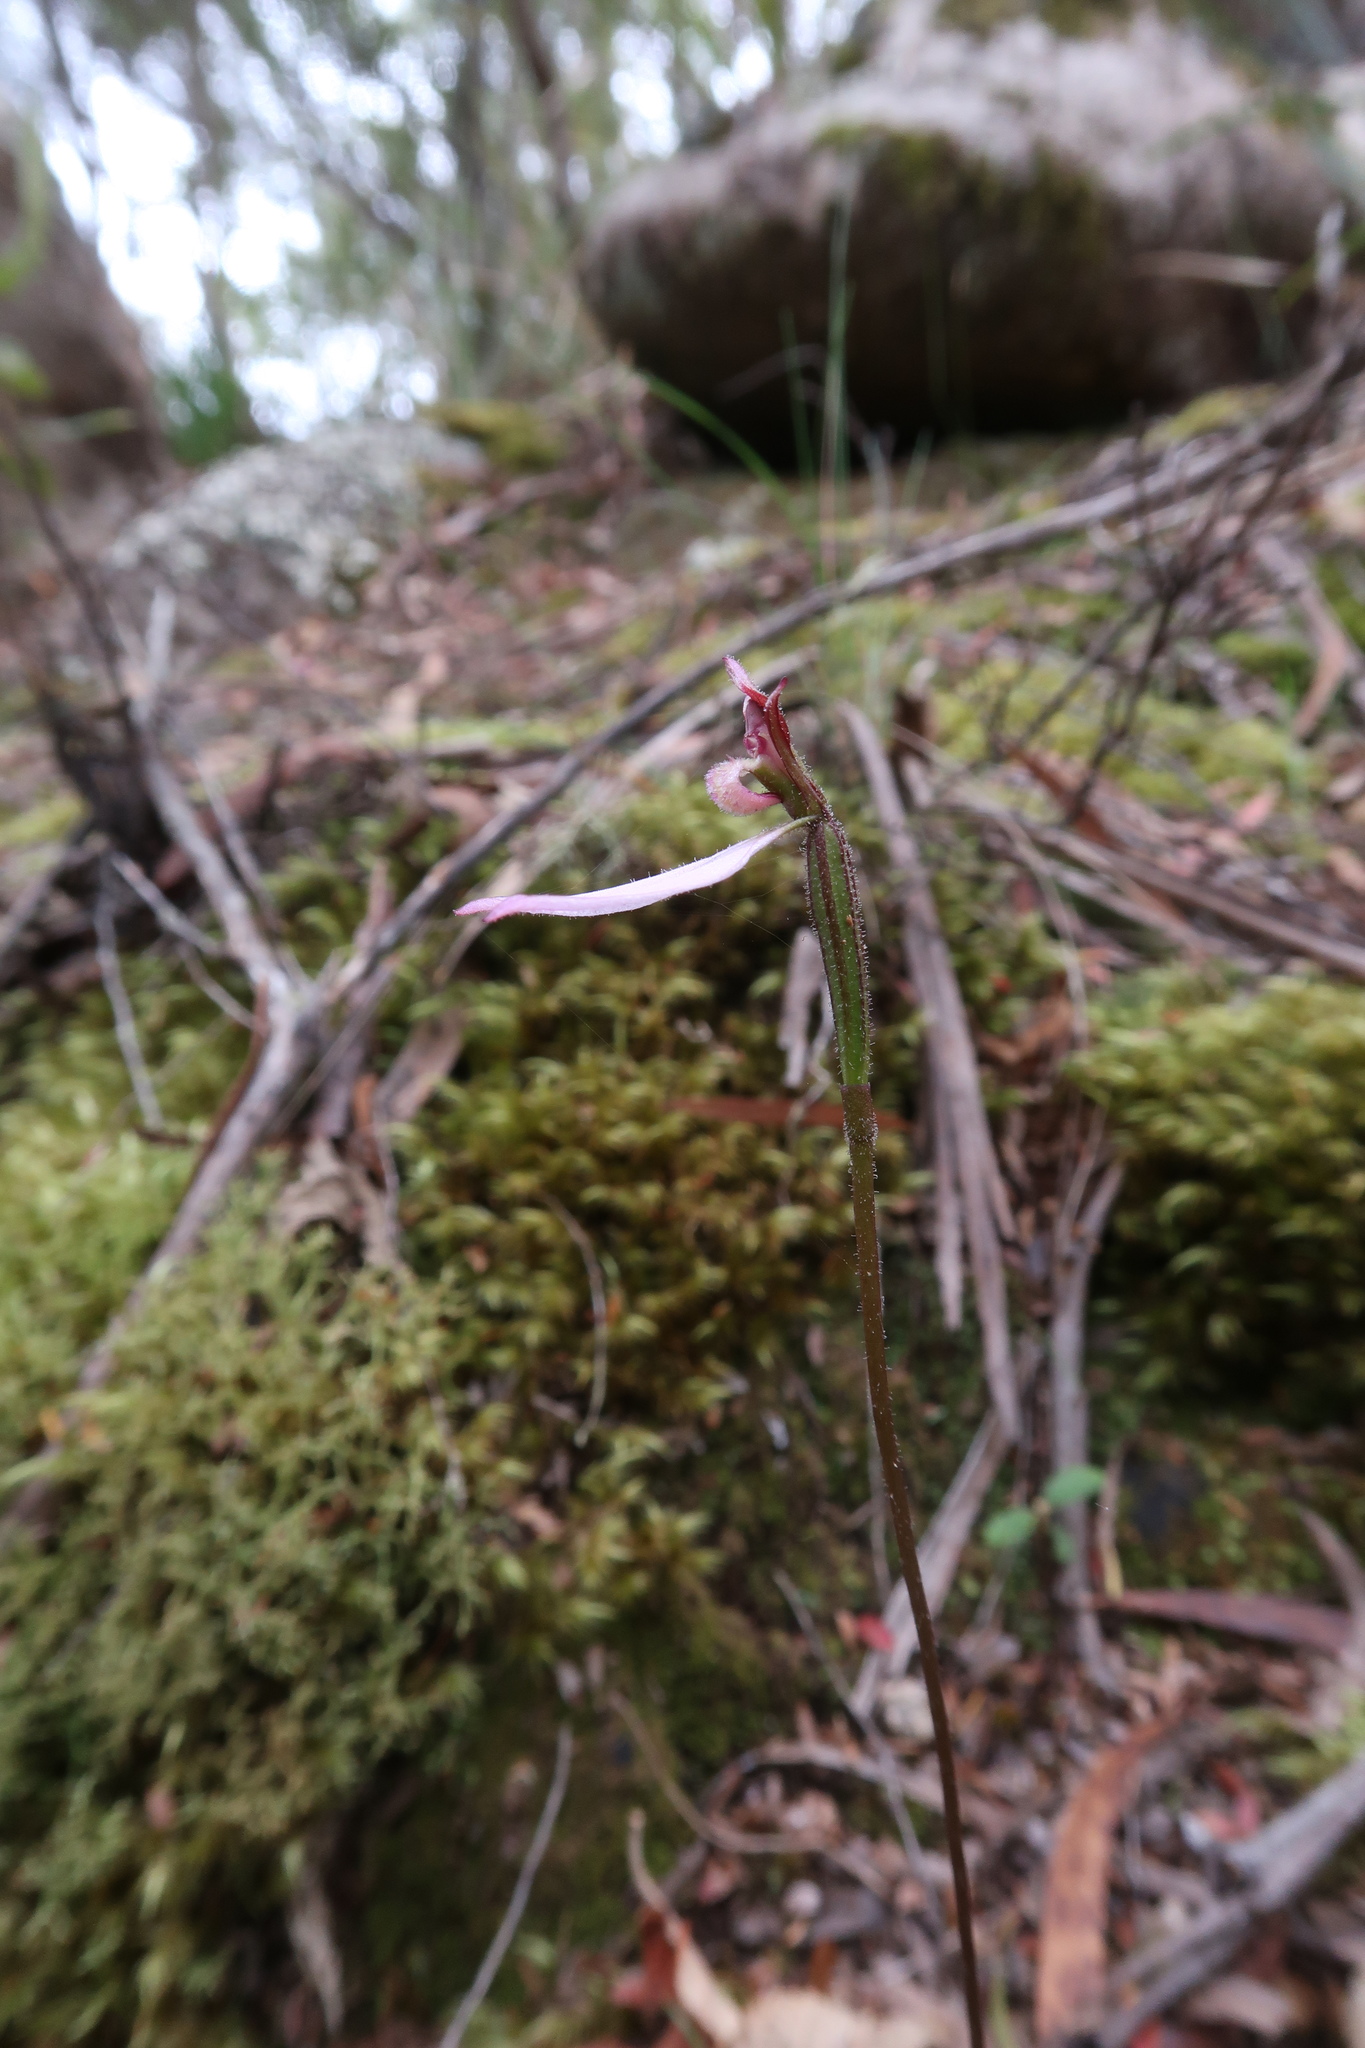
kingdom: Plantae
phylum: Tracheophyta
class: Liliopsida
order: Asparagales
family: Orchidaceae
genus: Eriochilus
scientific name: Eriochilus cucullatus
